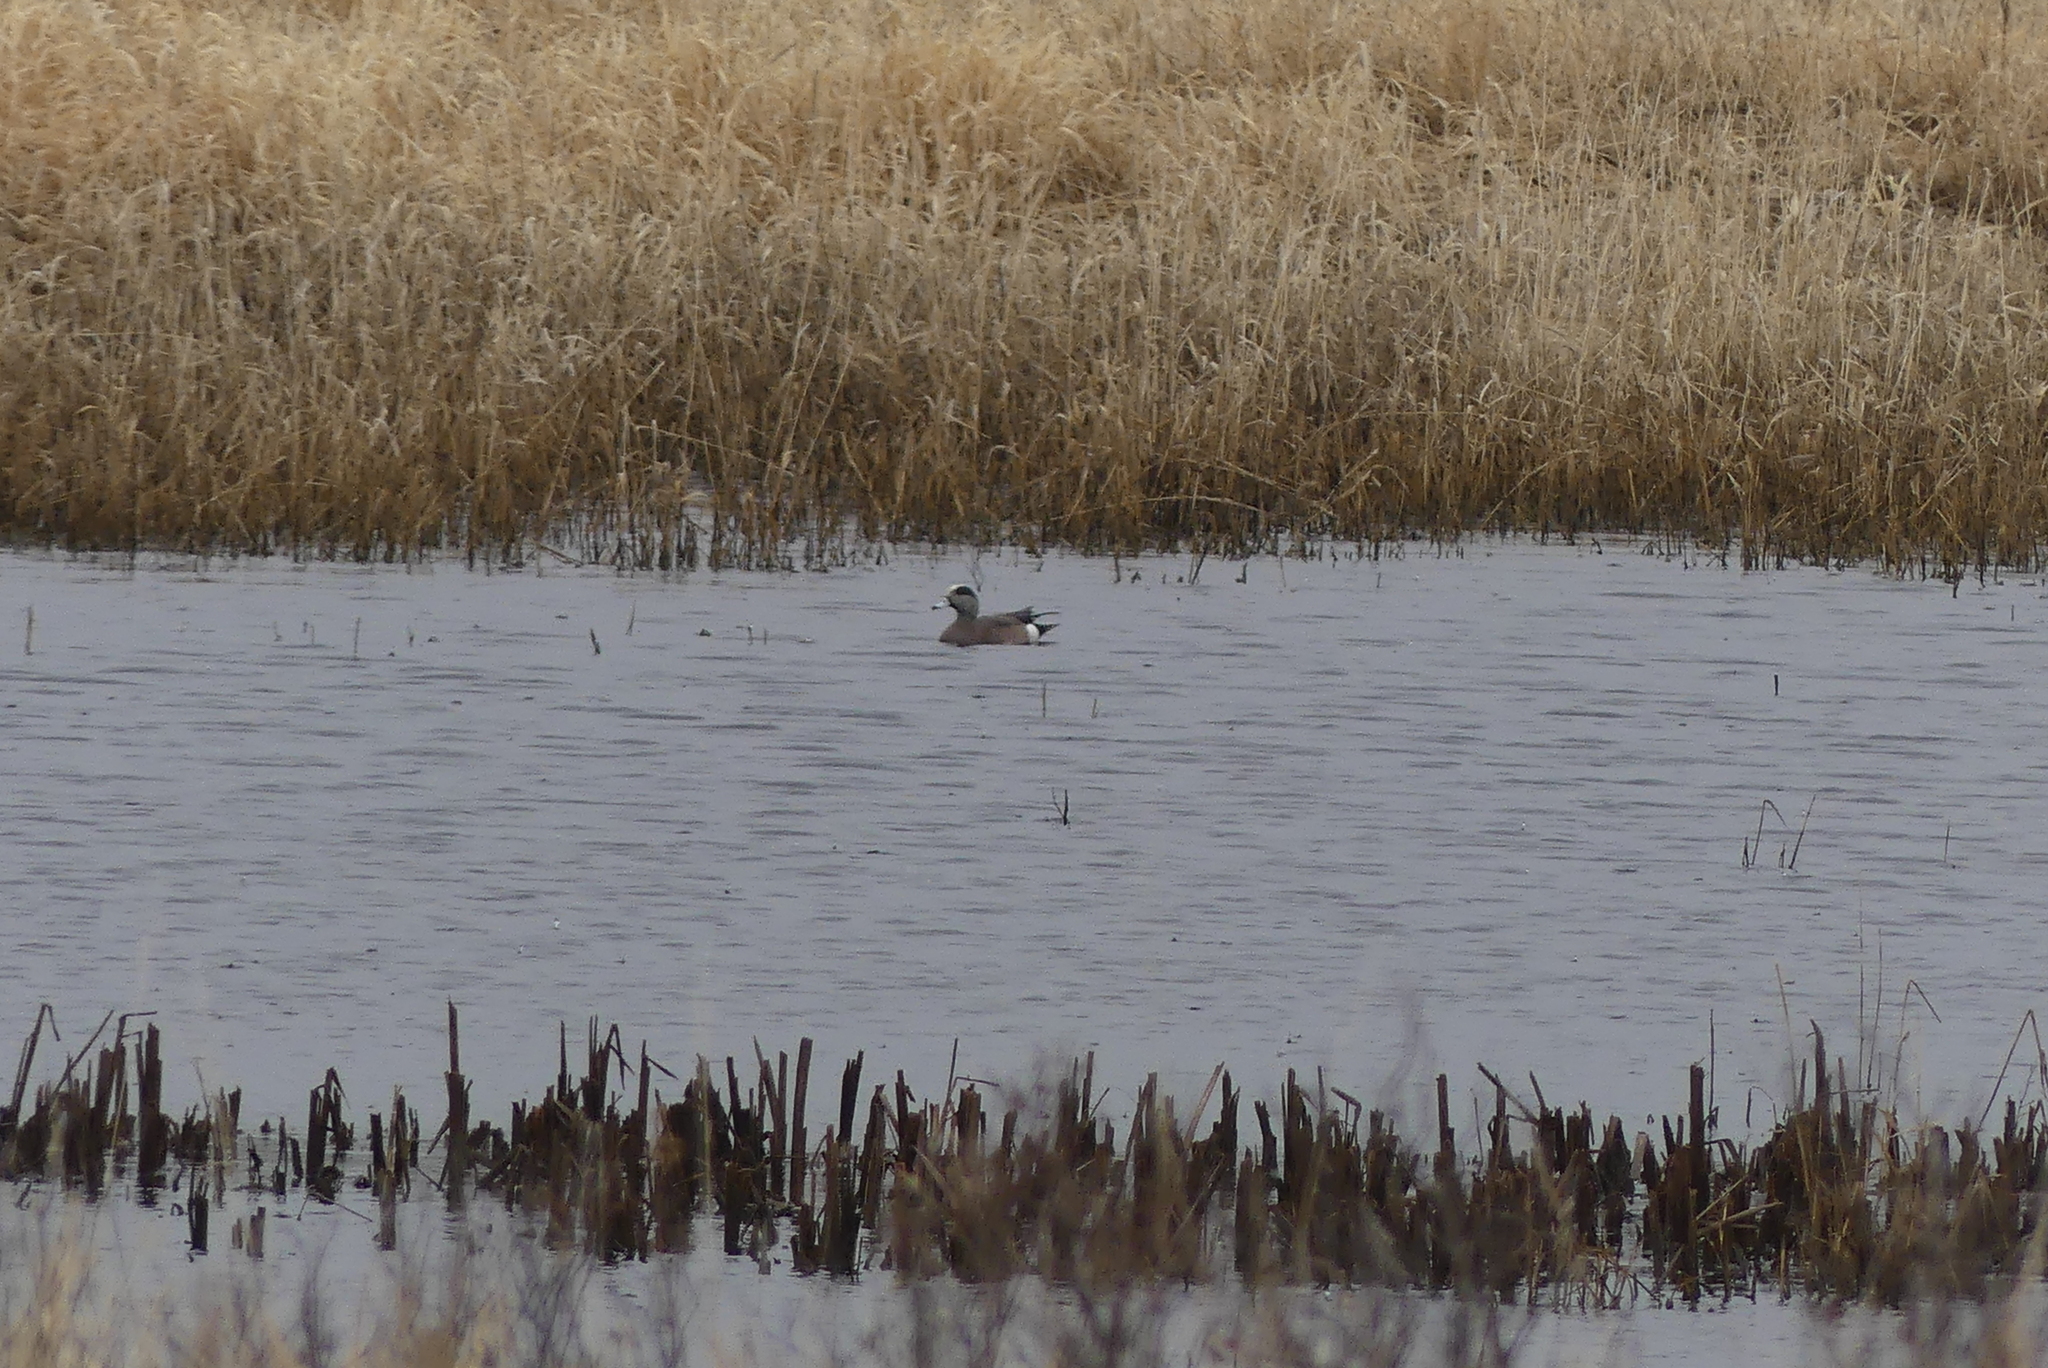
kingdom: Animalia
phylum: Chordata
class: Aves
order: Anseriformes
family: Anatidae
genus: Mareca
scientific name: Mareca americana
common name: American wigeon
